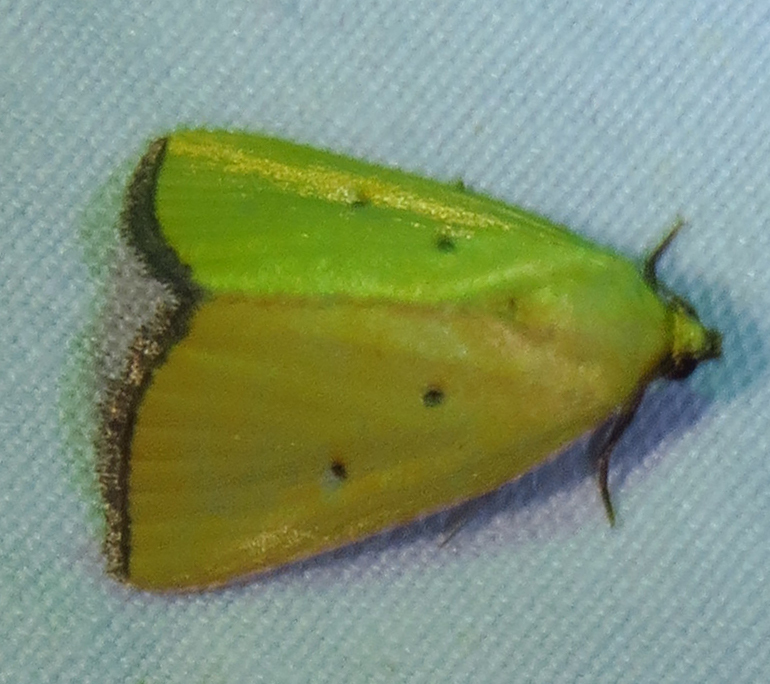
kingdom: Animalia
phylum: Arthropoda
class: Insecta
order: Lepidoptera
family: Noctuidae
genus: Marimatha
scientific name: Marimatha nigrofimbria
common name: Black-bordered lemon moth
